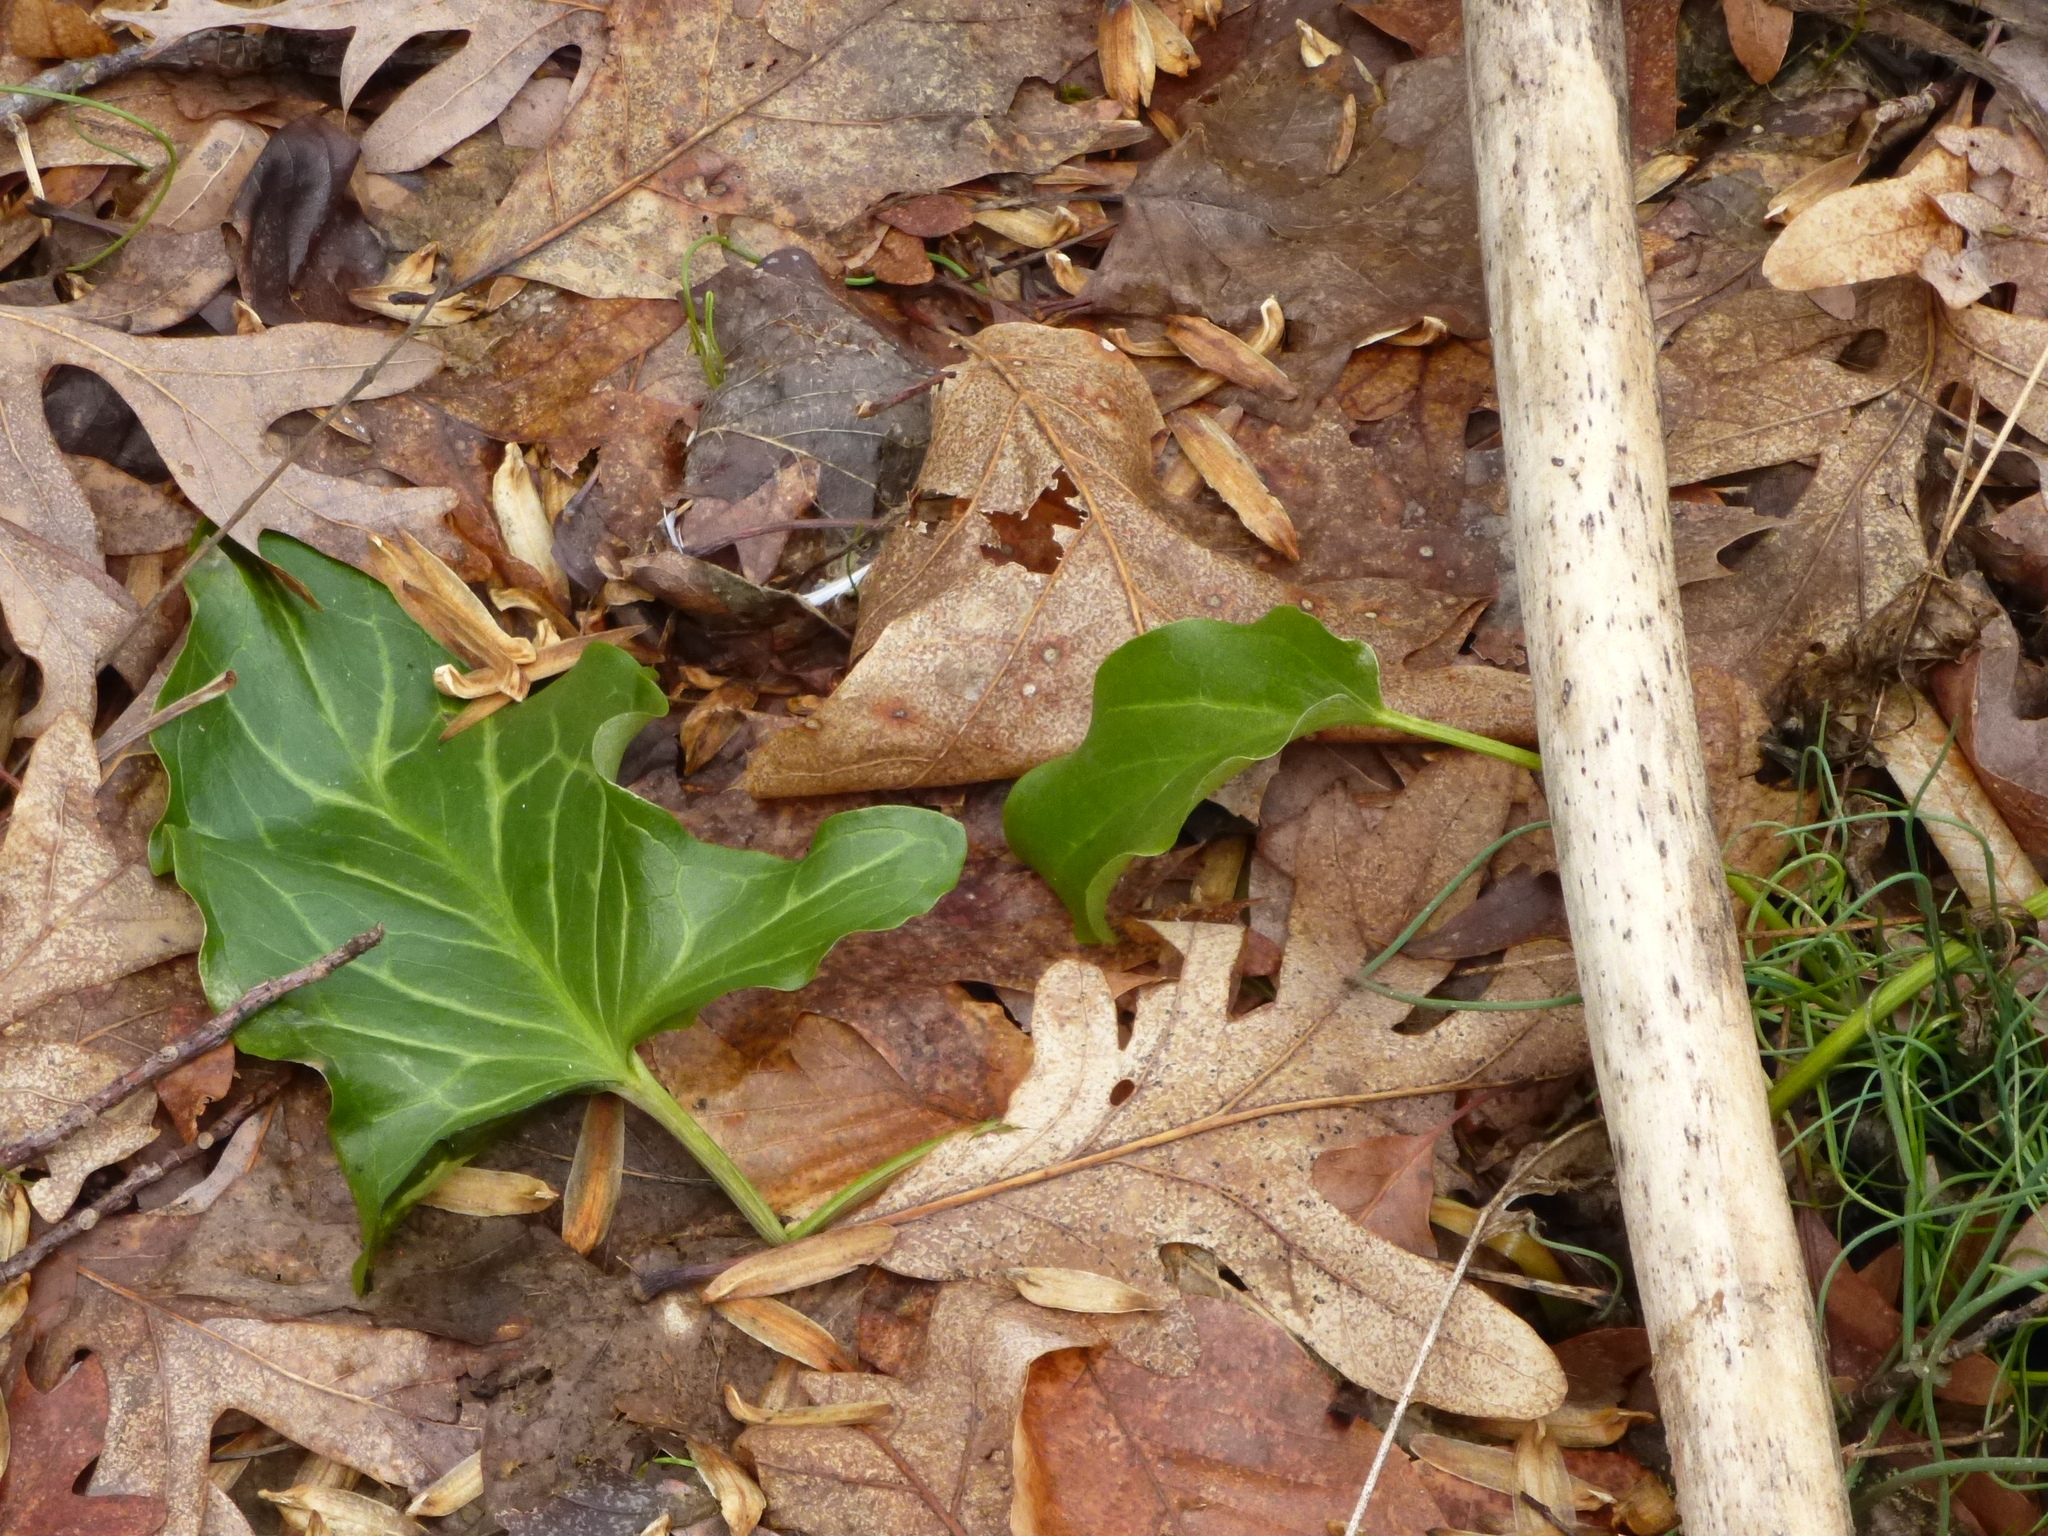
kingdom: Plantae
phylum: Tracheophyta
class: Liliopsida
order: Alismatales
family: Araceae
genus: Arum
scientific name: Arum italicum
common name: Italian lords-and-ladies
